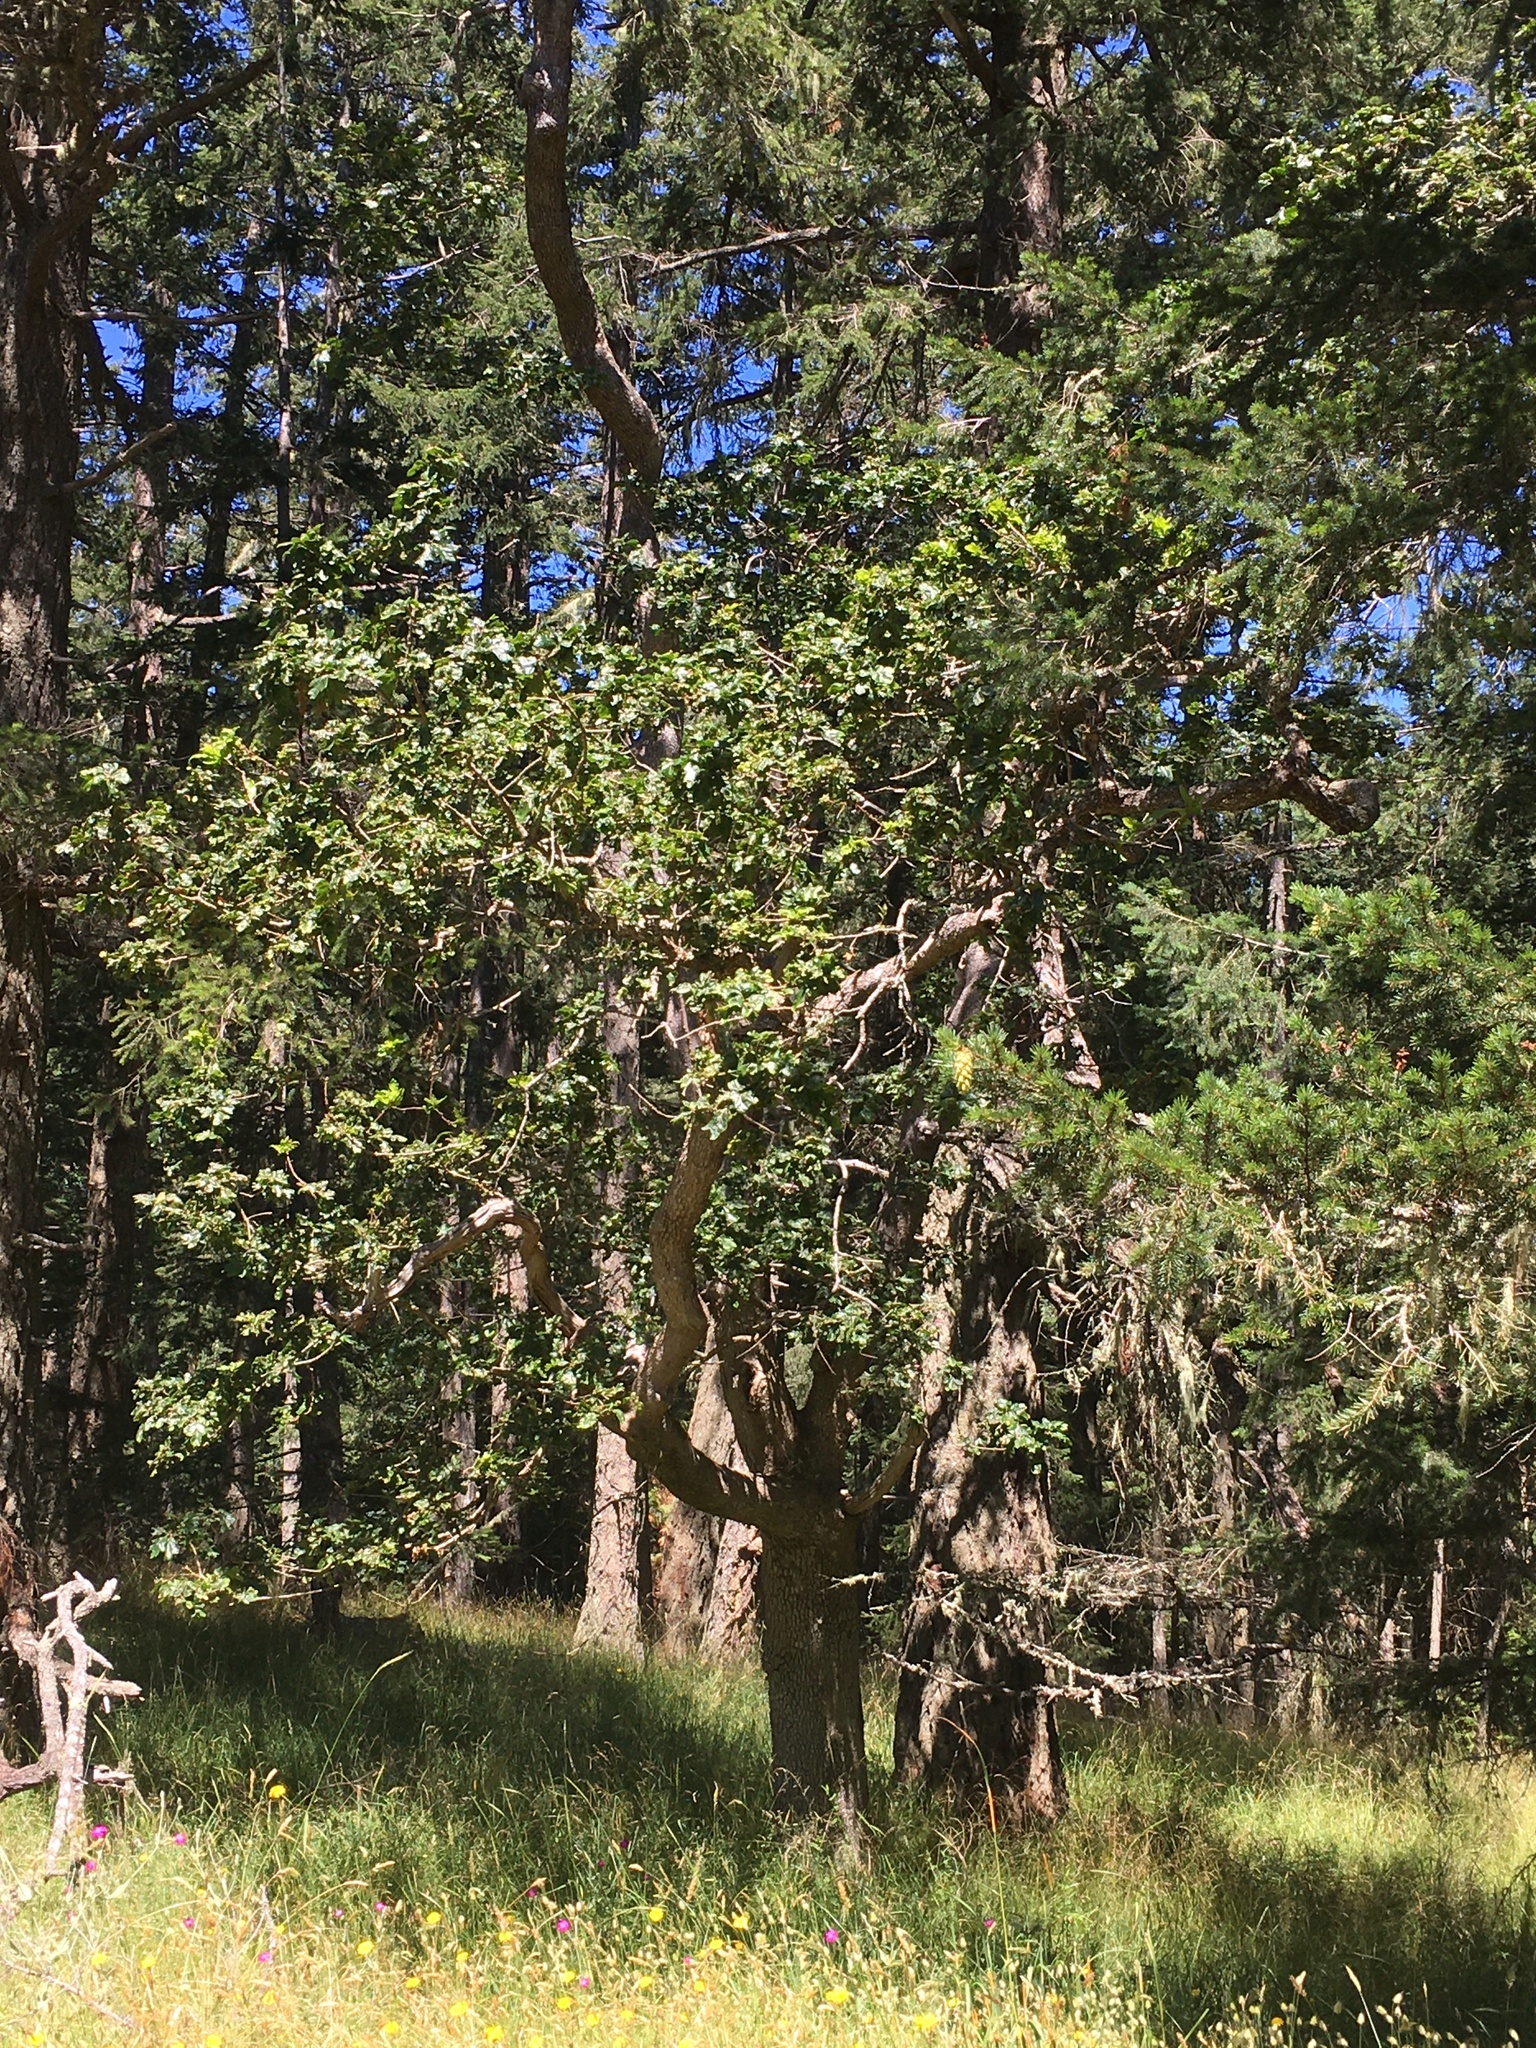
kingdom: Plantae
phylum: Tracheophyta
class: Magnoliopsida
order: Fagales
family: Fagaceae
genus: Quercus
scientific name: Quercus garryana
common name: Garry oak
